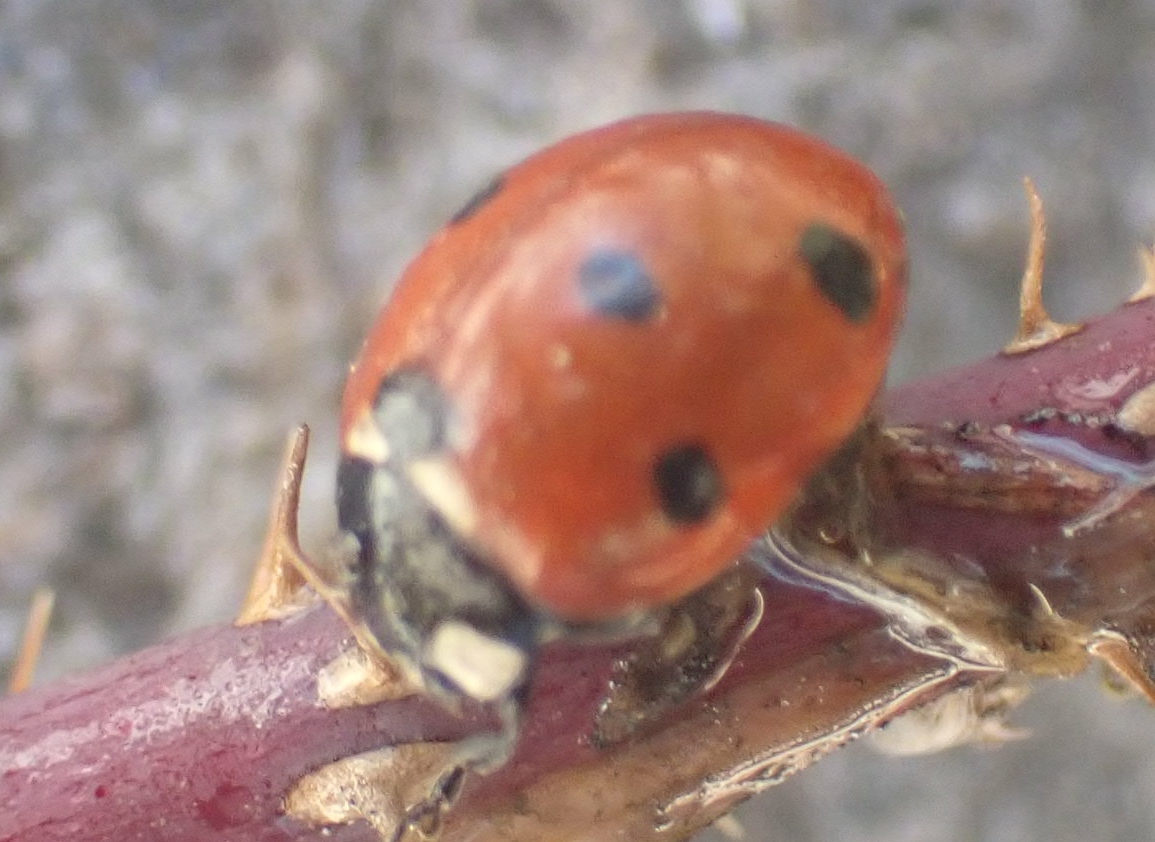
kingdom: Animalia
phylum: Arthropoda
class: Insecta
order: Coleoptera
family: Coccinellidae
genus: Coccinella
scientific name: Coccinella septempunctata
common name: Sevenspotted lady beetle
